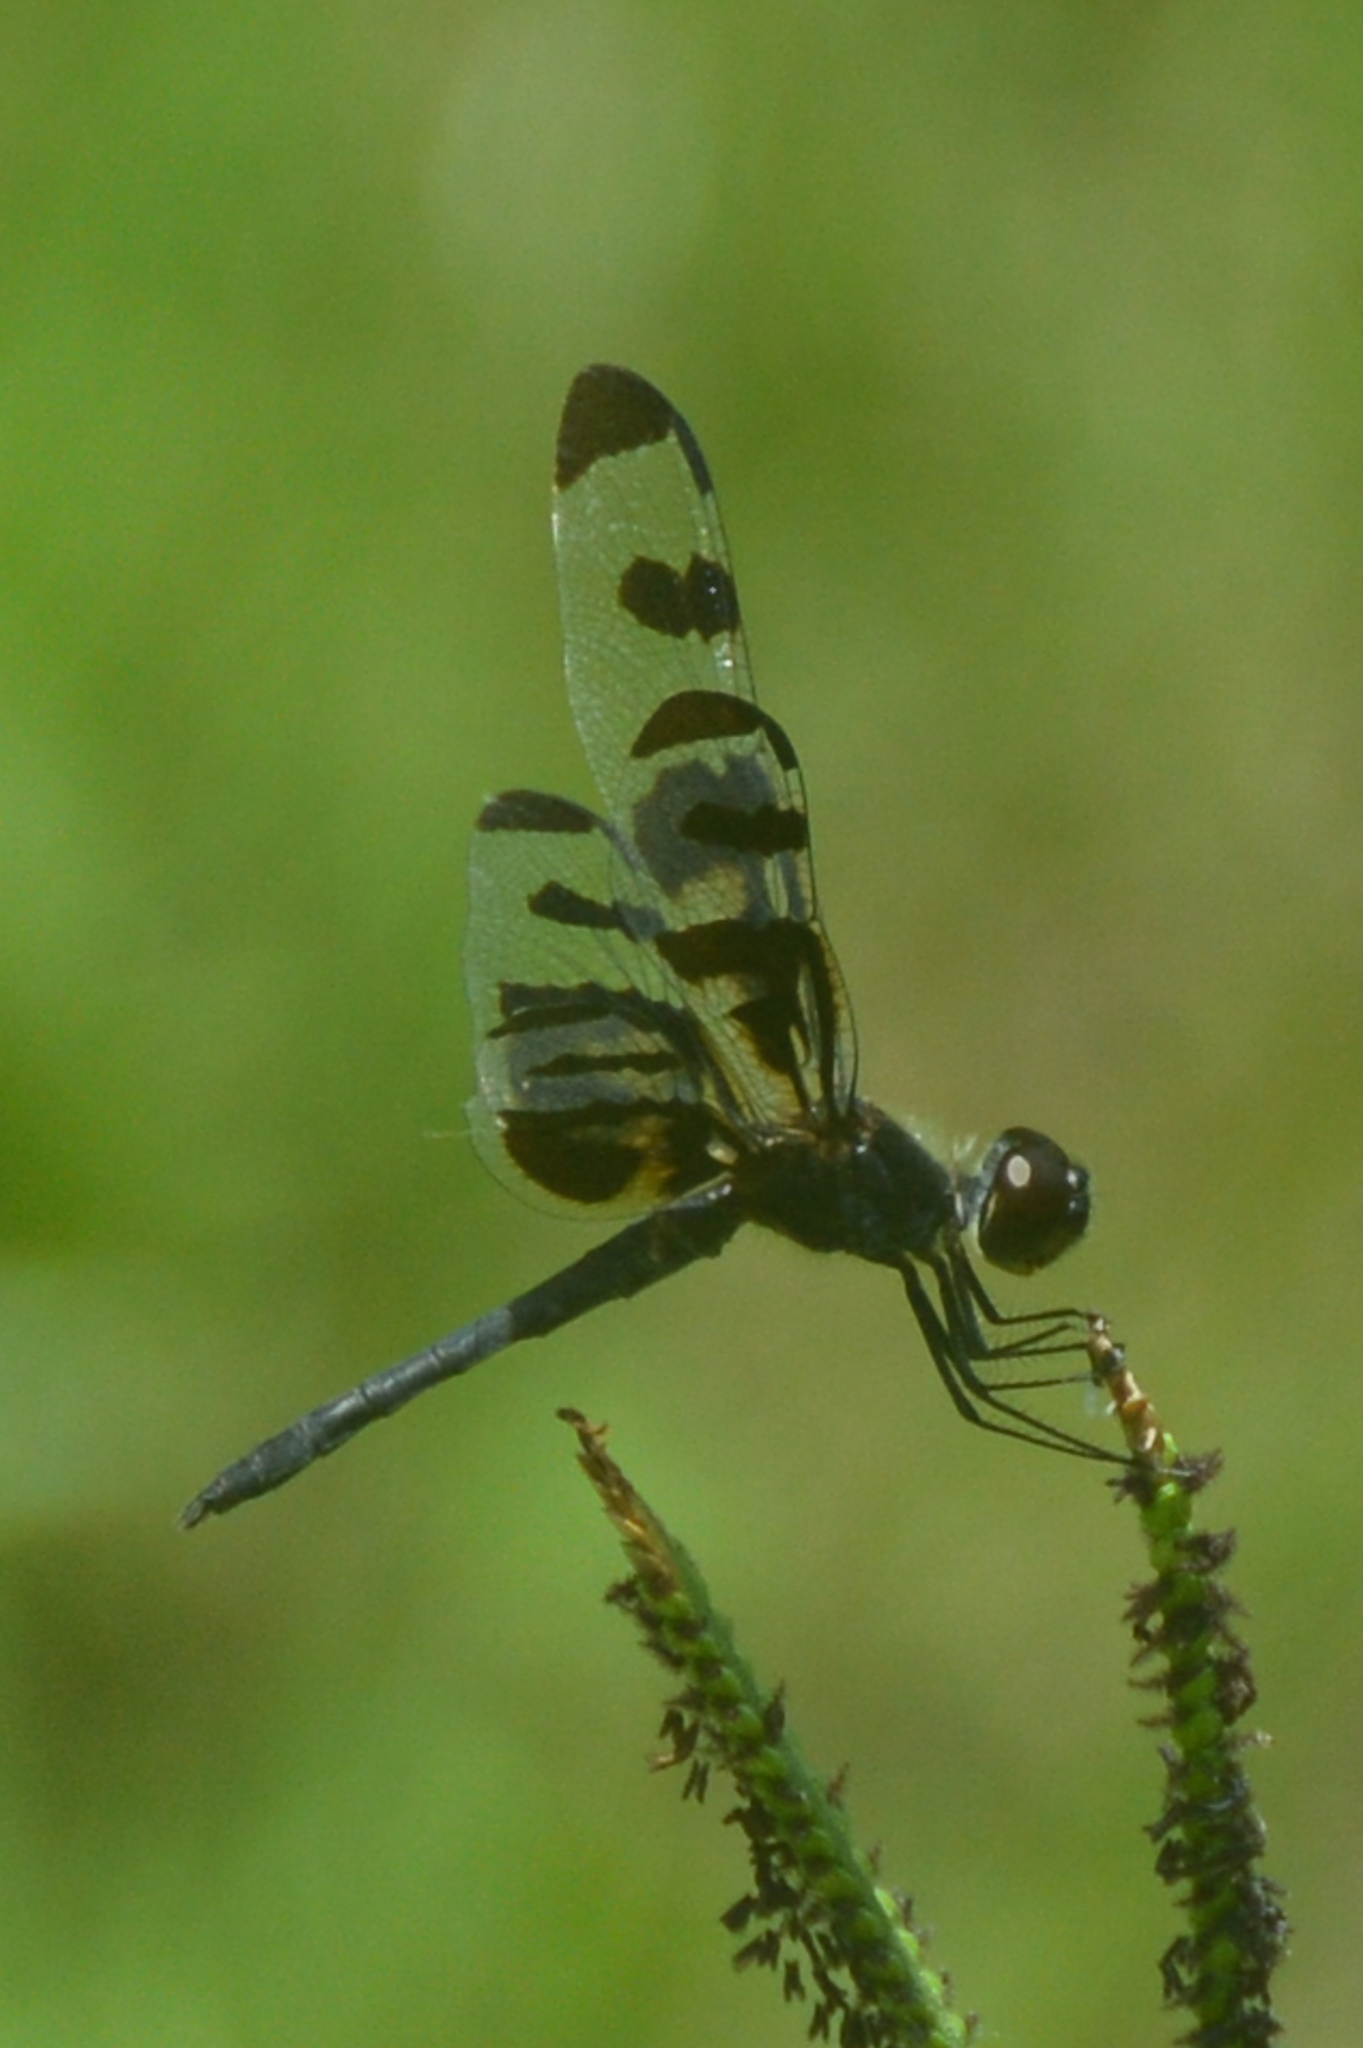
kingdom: Animalia
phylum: Arthropoda
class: Insecta
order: Odonata
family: Libellulidae
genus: Celithemis
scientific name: Celithemis fasciata
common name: Banded pennant
